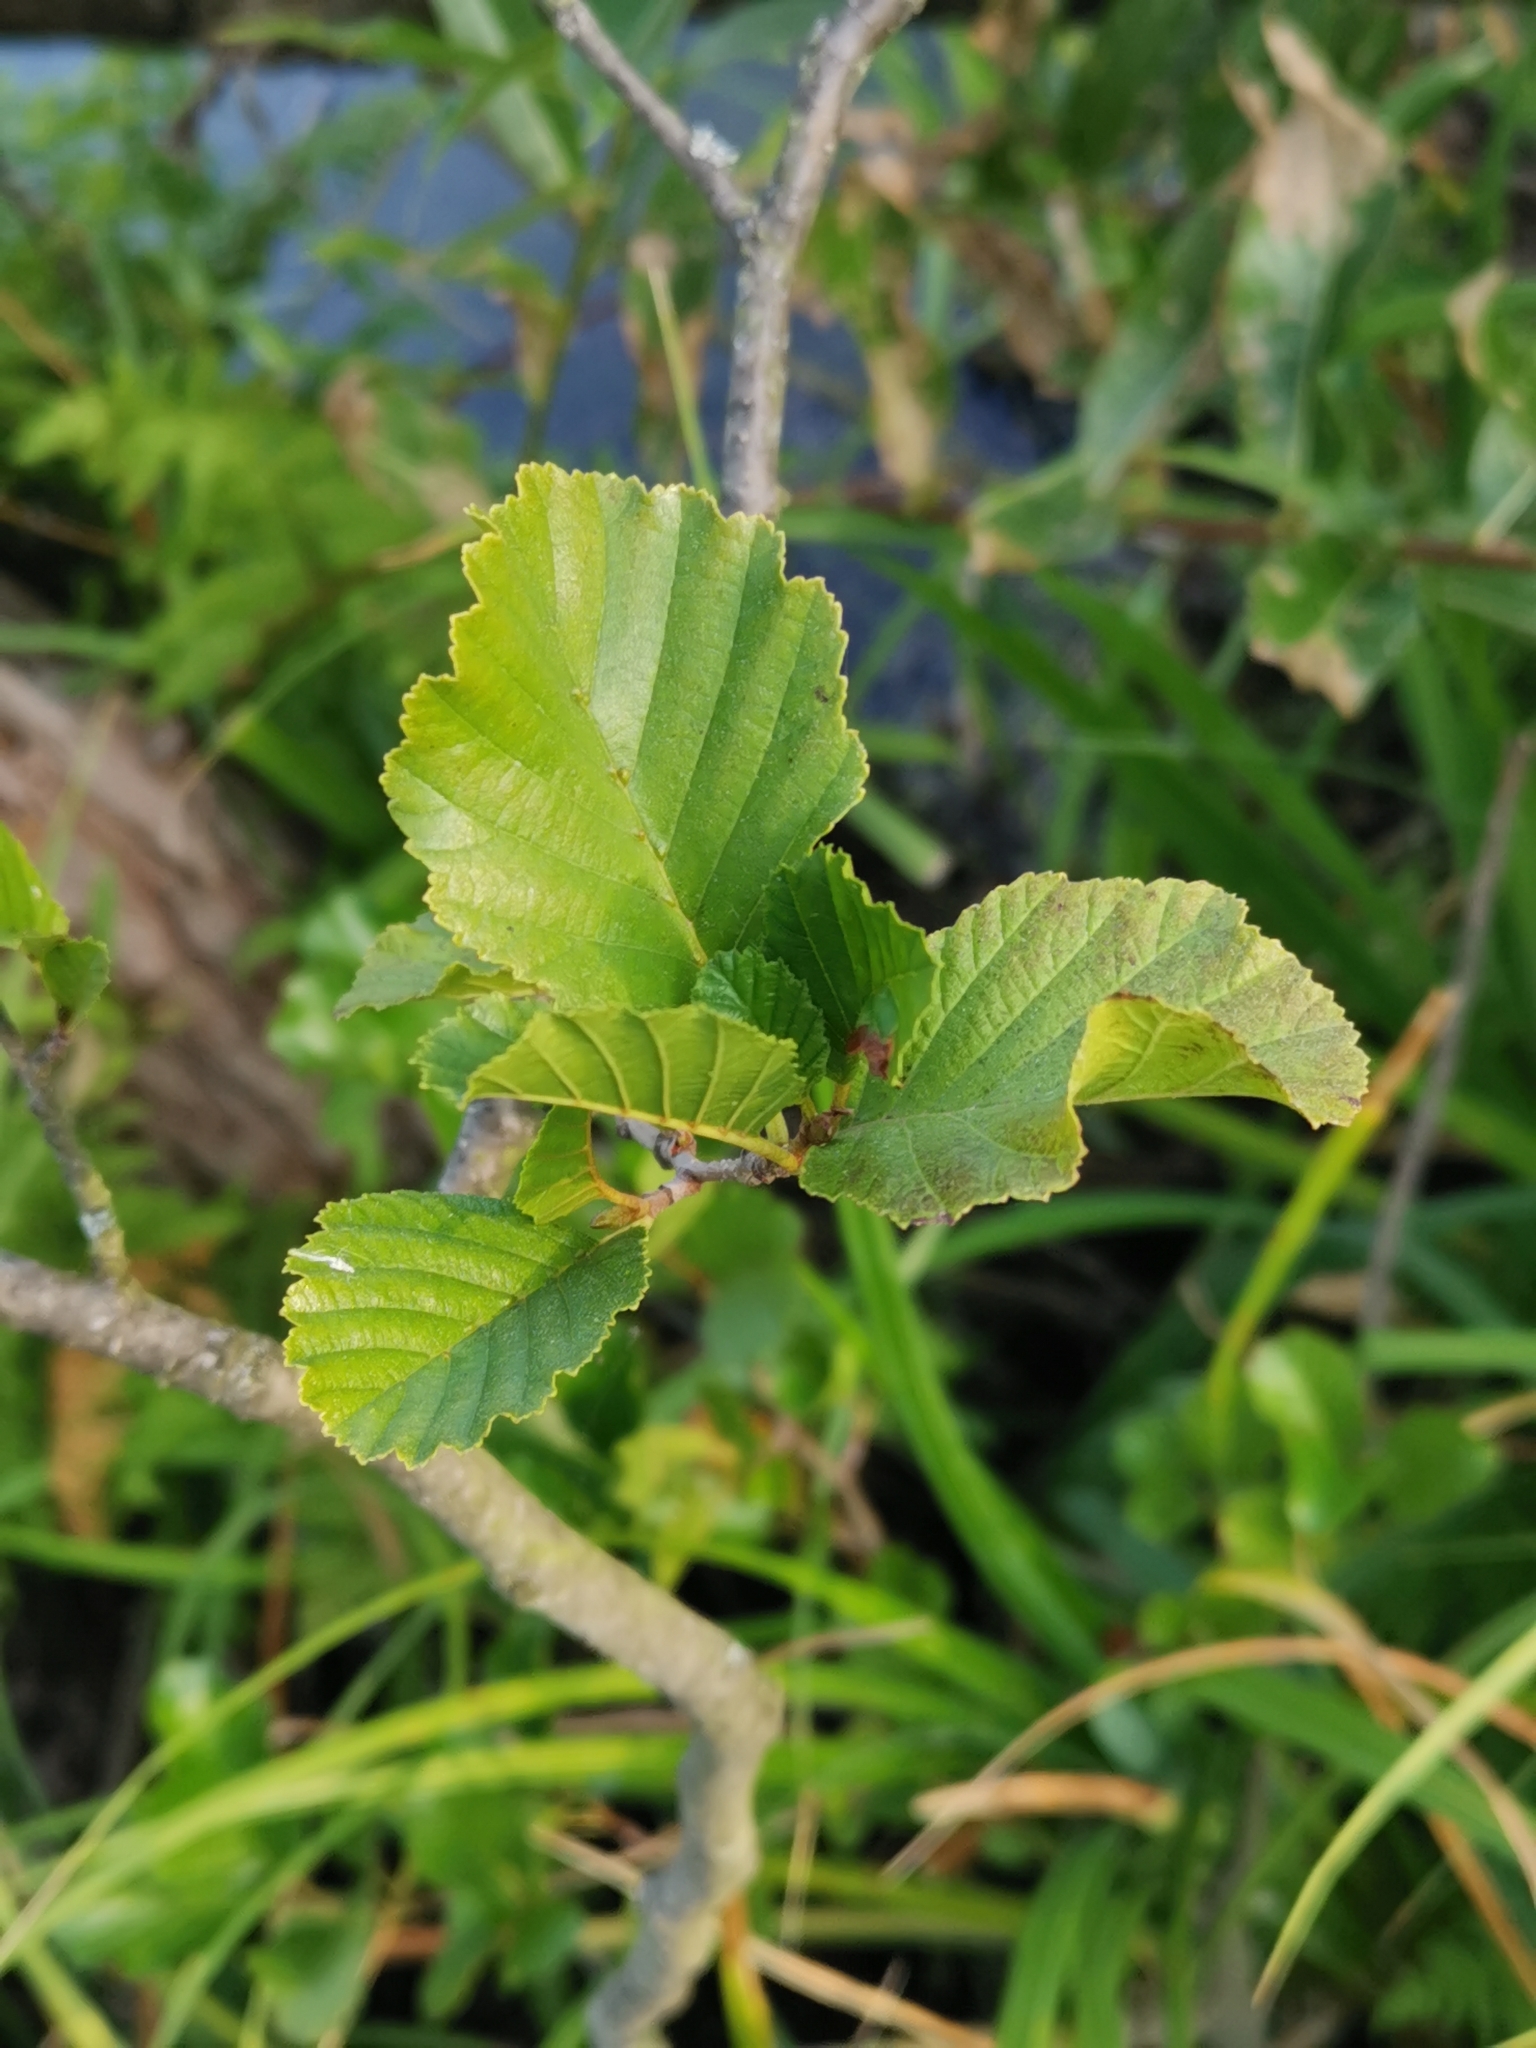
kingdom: Plantae
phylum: Tracheophyta
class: Magnoliopsida
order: Fagales
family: Betulaceae
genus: Alnus
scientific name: Alnus glutinosa
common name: Black alder
